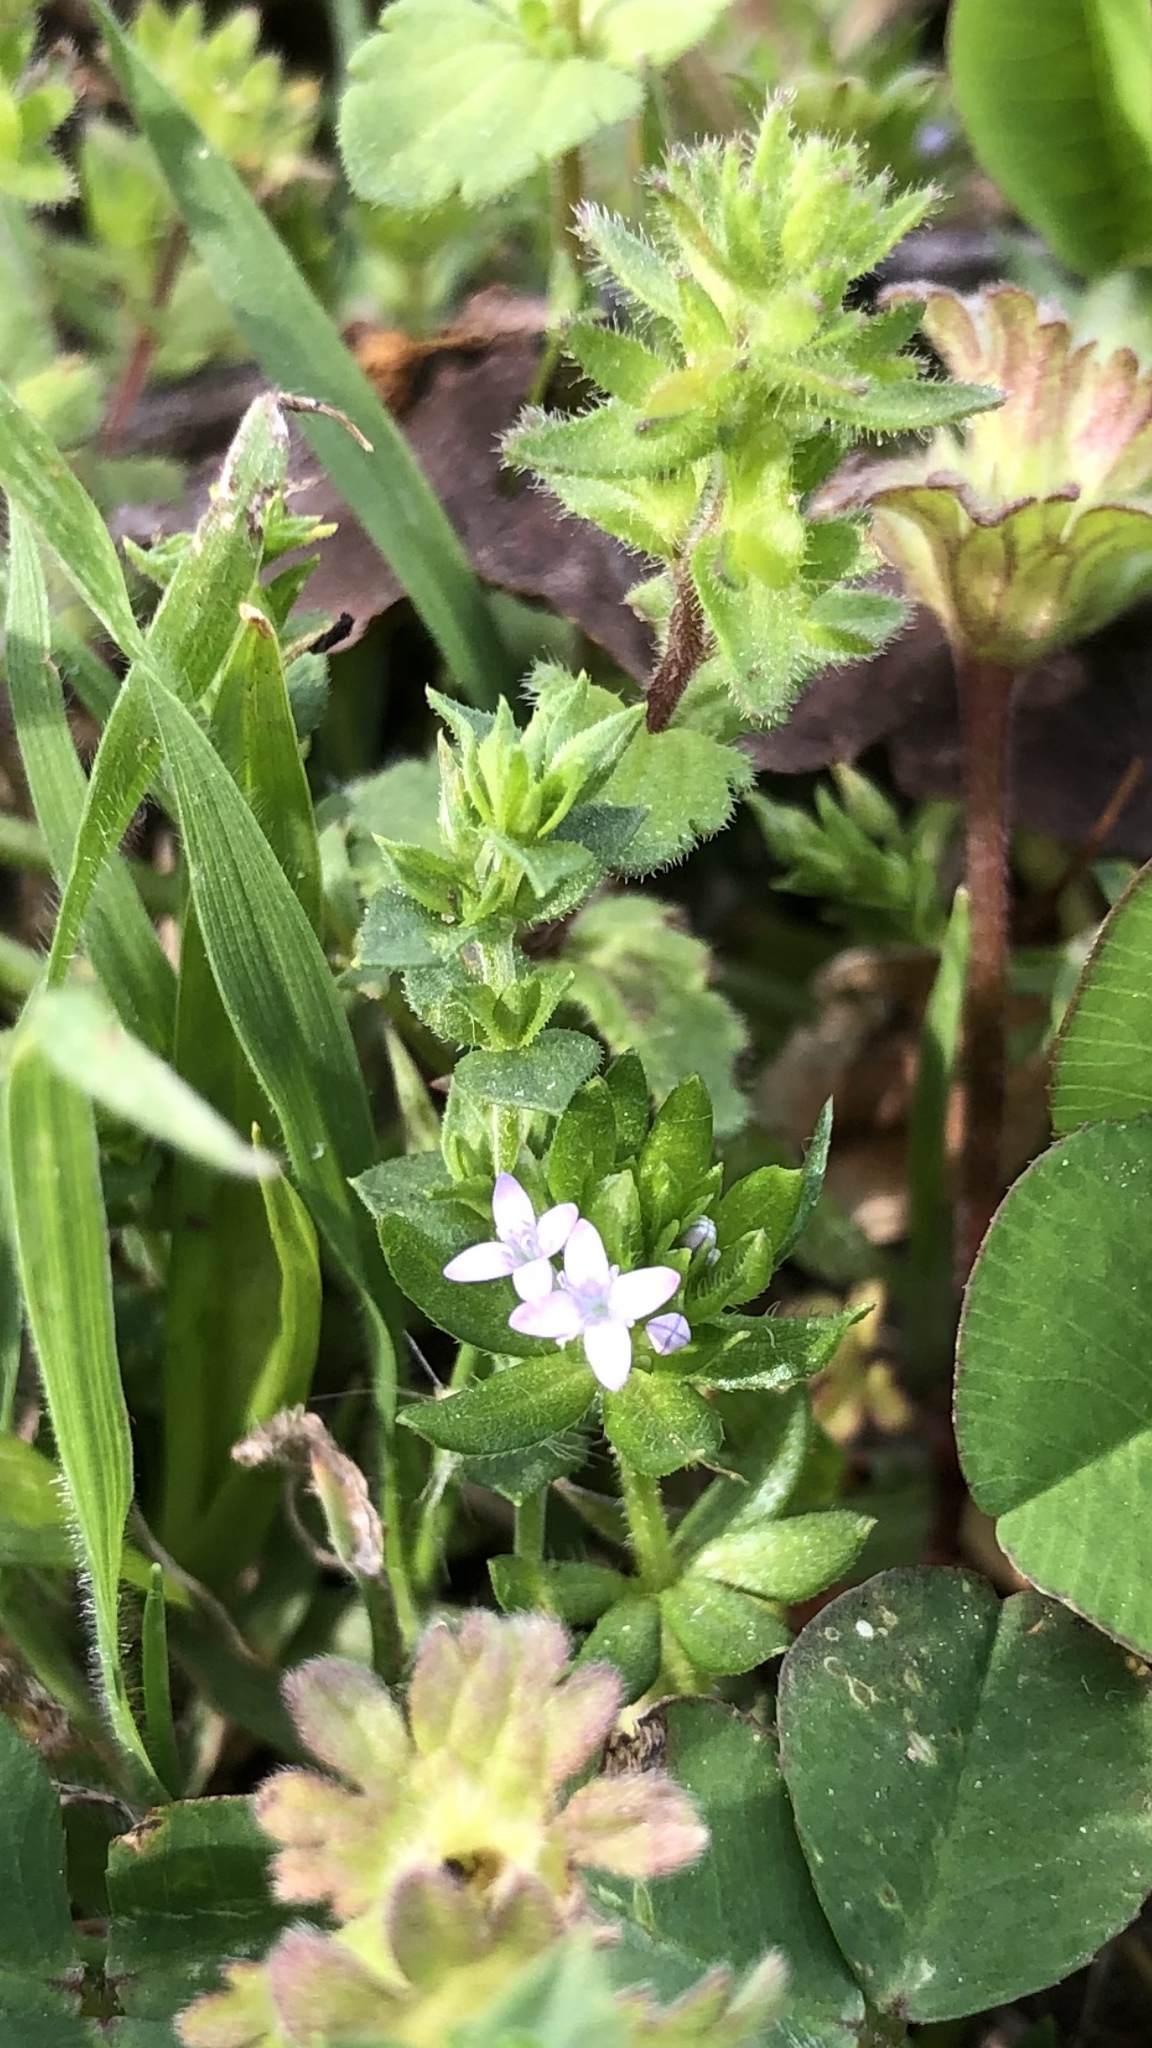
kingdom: Plantae
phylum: Tracheophyta
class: Magnoliopsida
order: Gentianales
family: Rubiaceae
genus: Sherardia
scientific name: Sherardia arvensis
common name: Field madder
